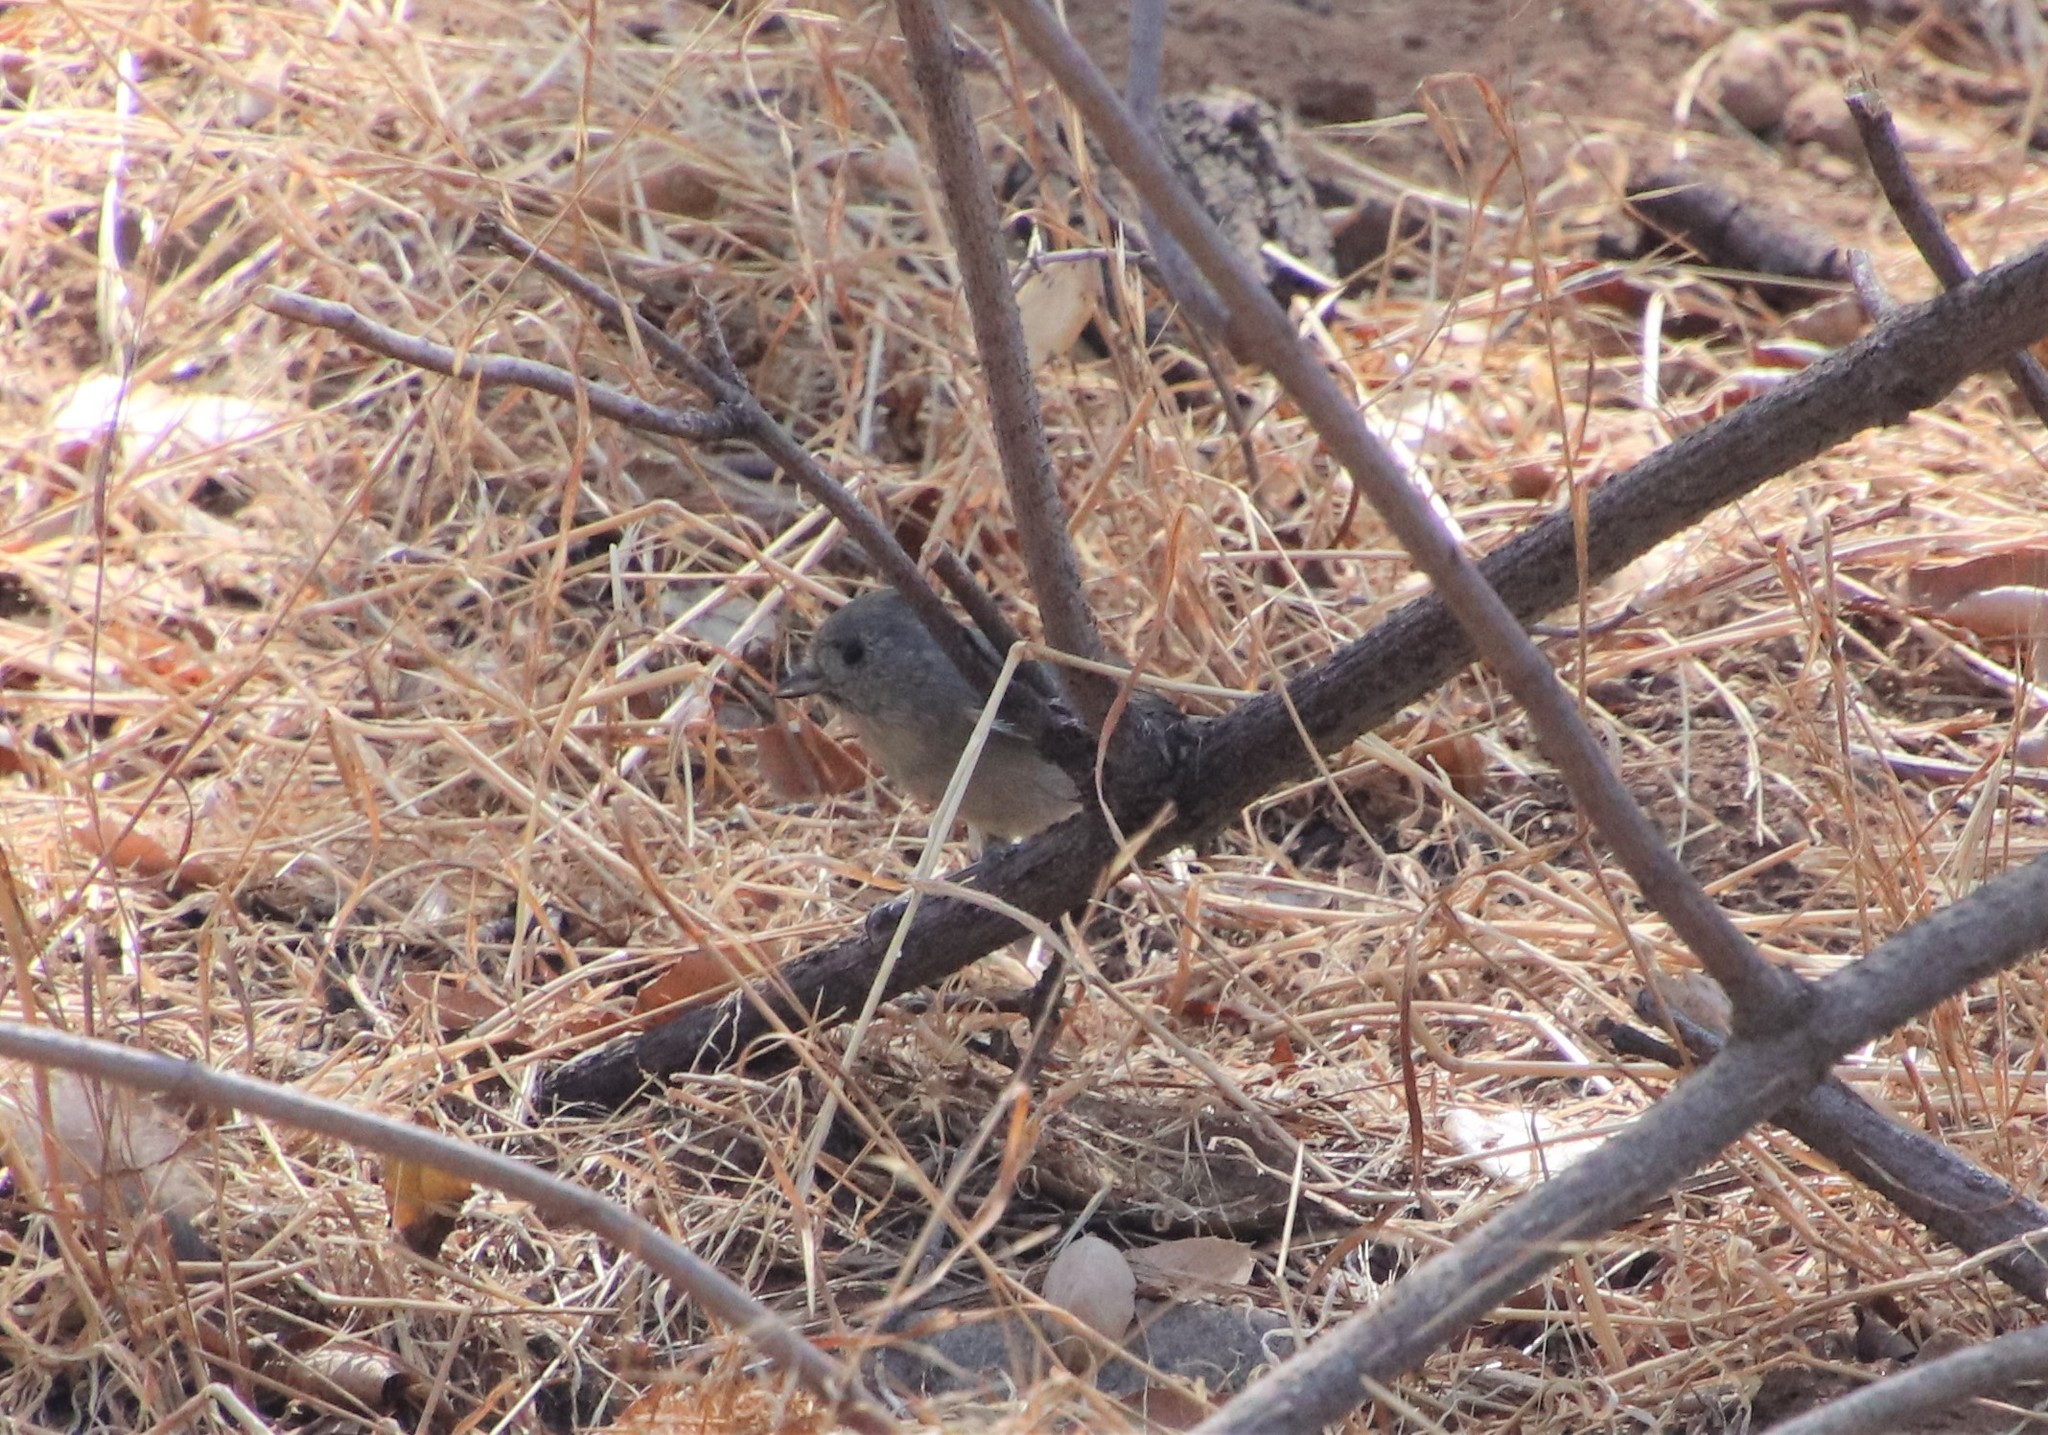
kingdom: Animalia
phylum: Chordata
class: Aves
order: Passeriformes
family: Paridae
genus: Baeolophus
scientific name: Baeolophus inornatus
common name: Oak titmouse
